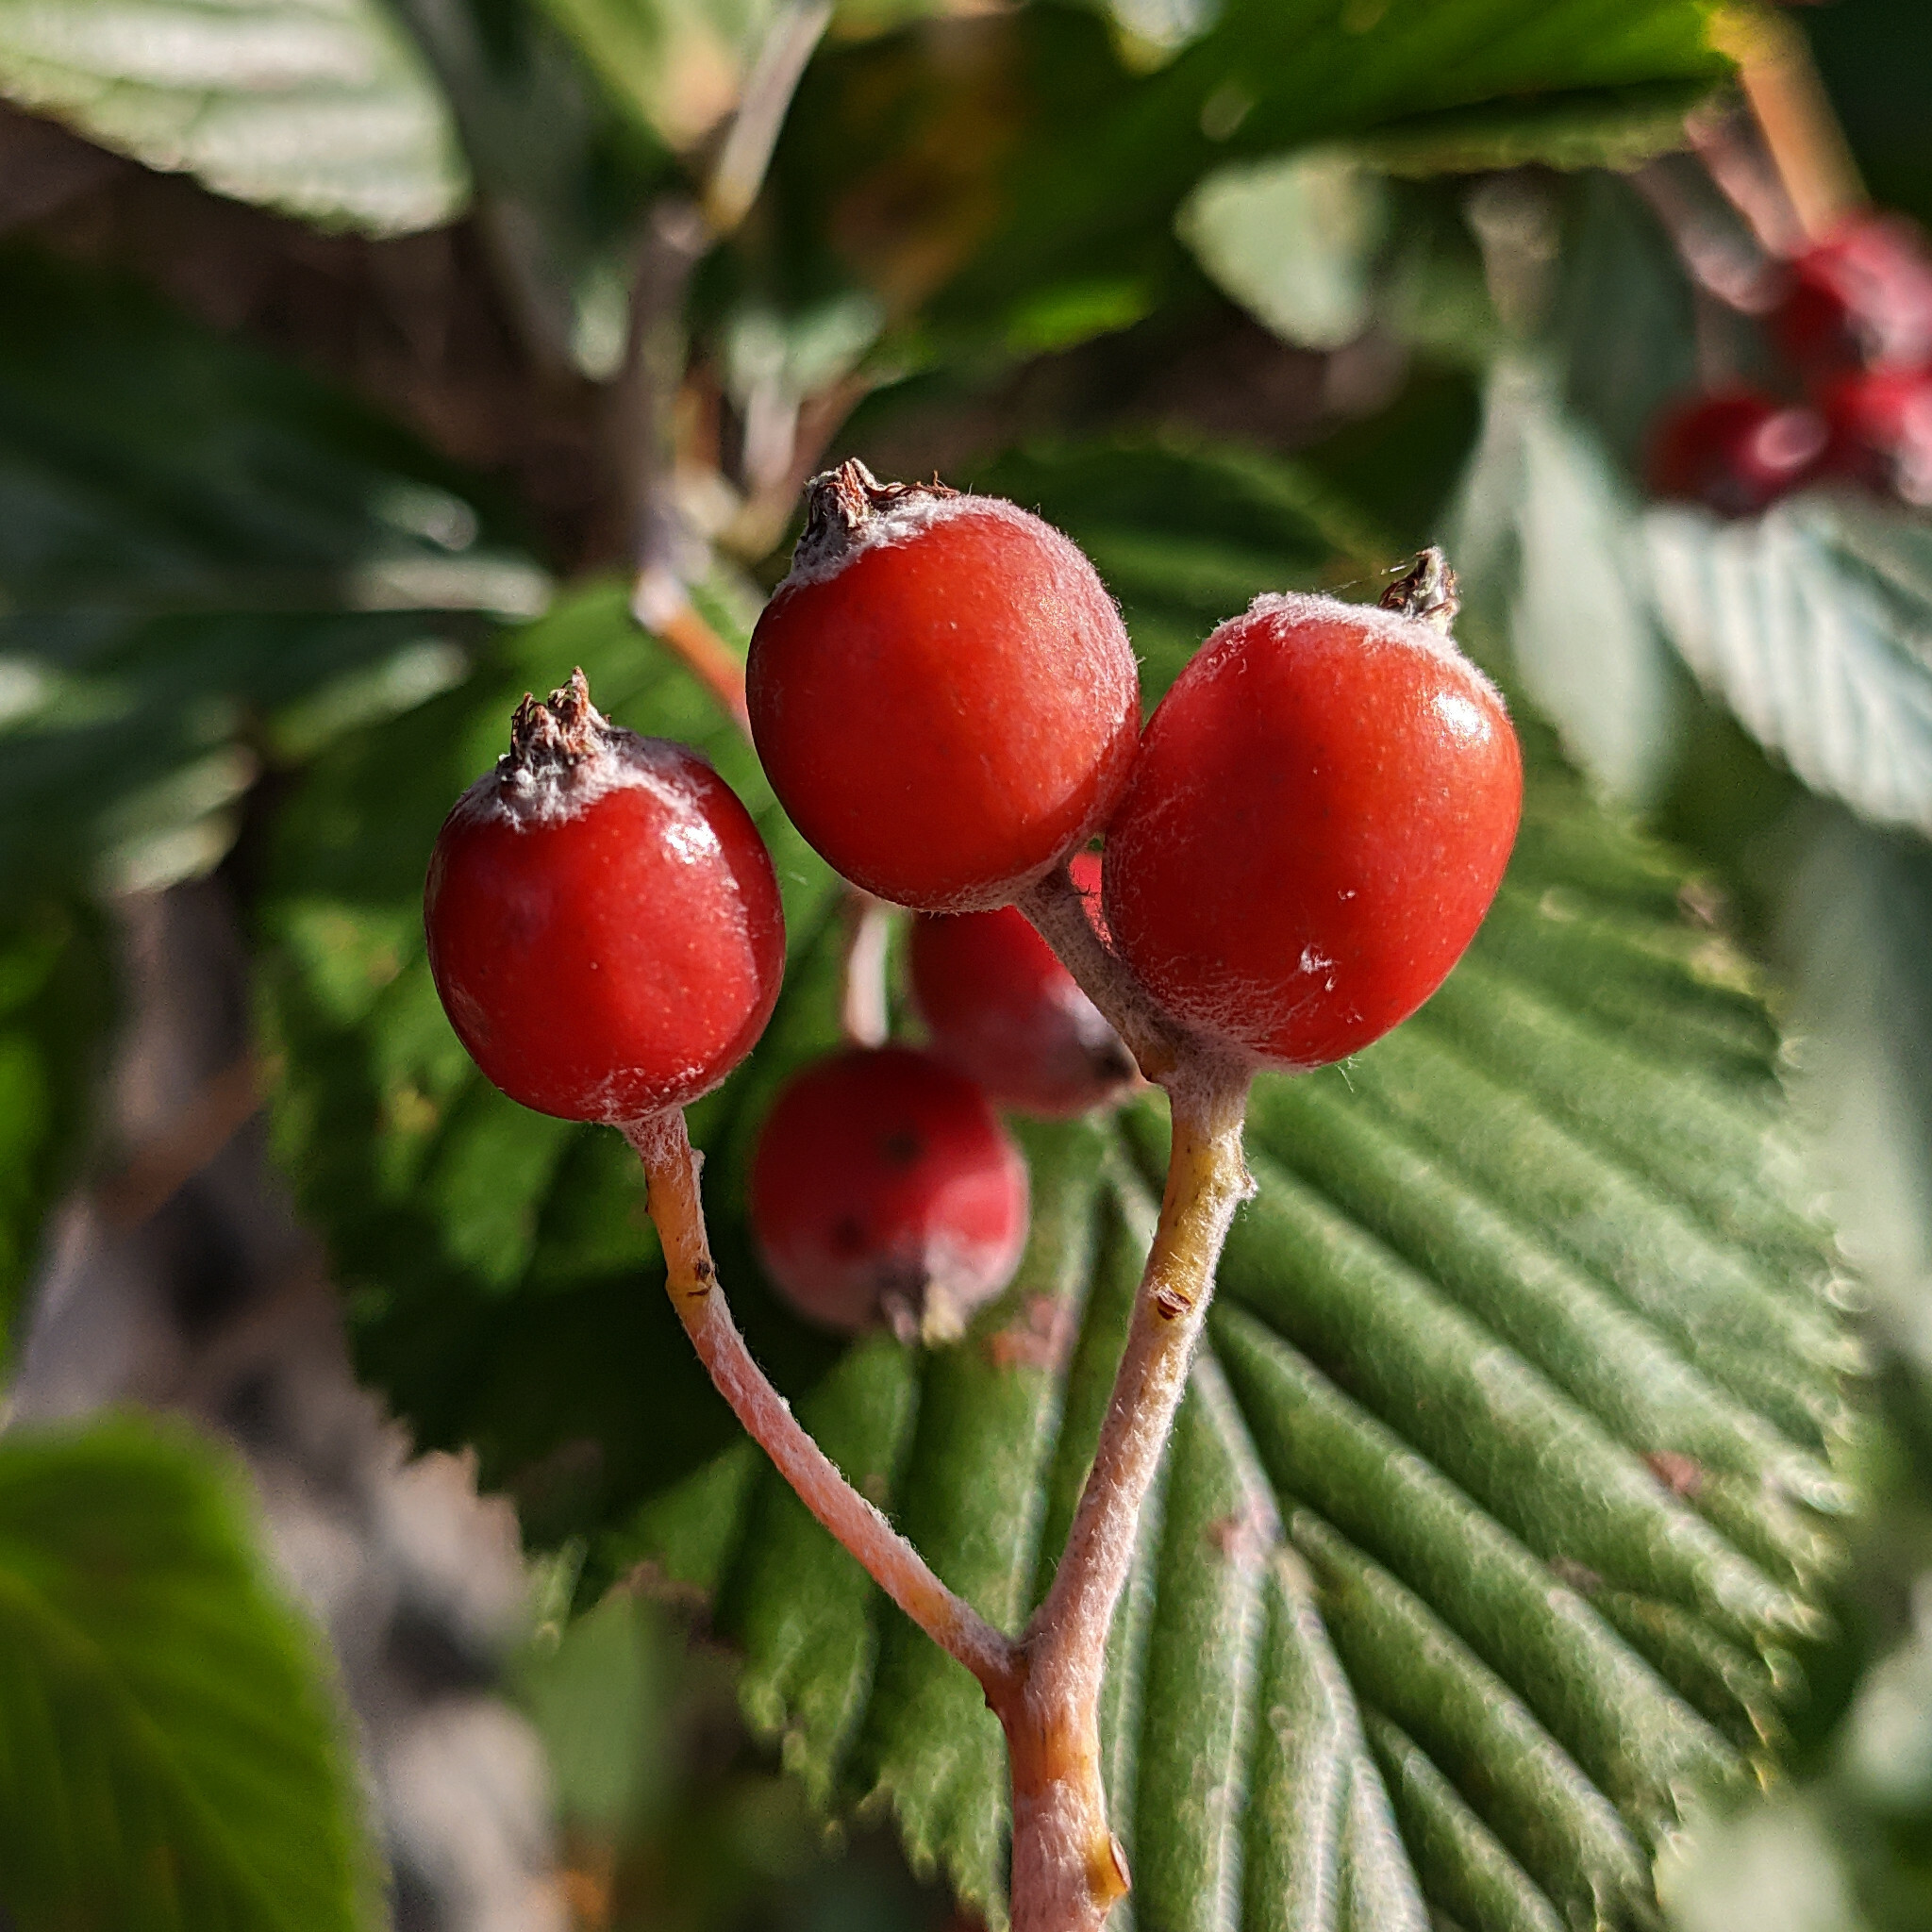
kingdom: Plantae
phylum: Tracheophyta
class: Magnoliopsida
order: Rosales
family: Rosaceae
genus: Aria
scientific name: Aria edulis
